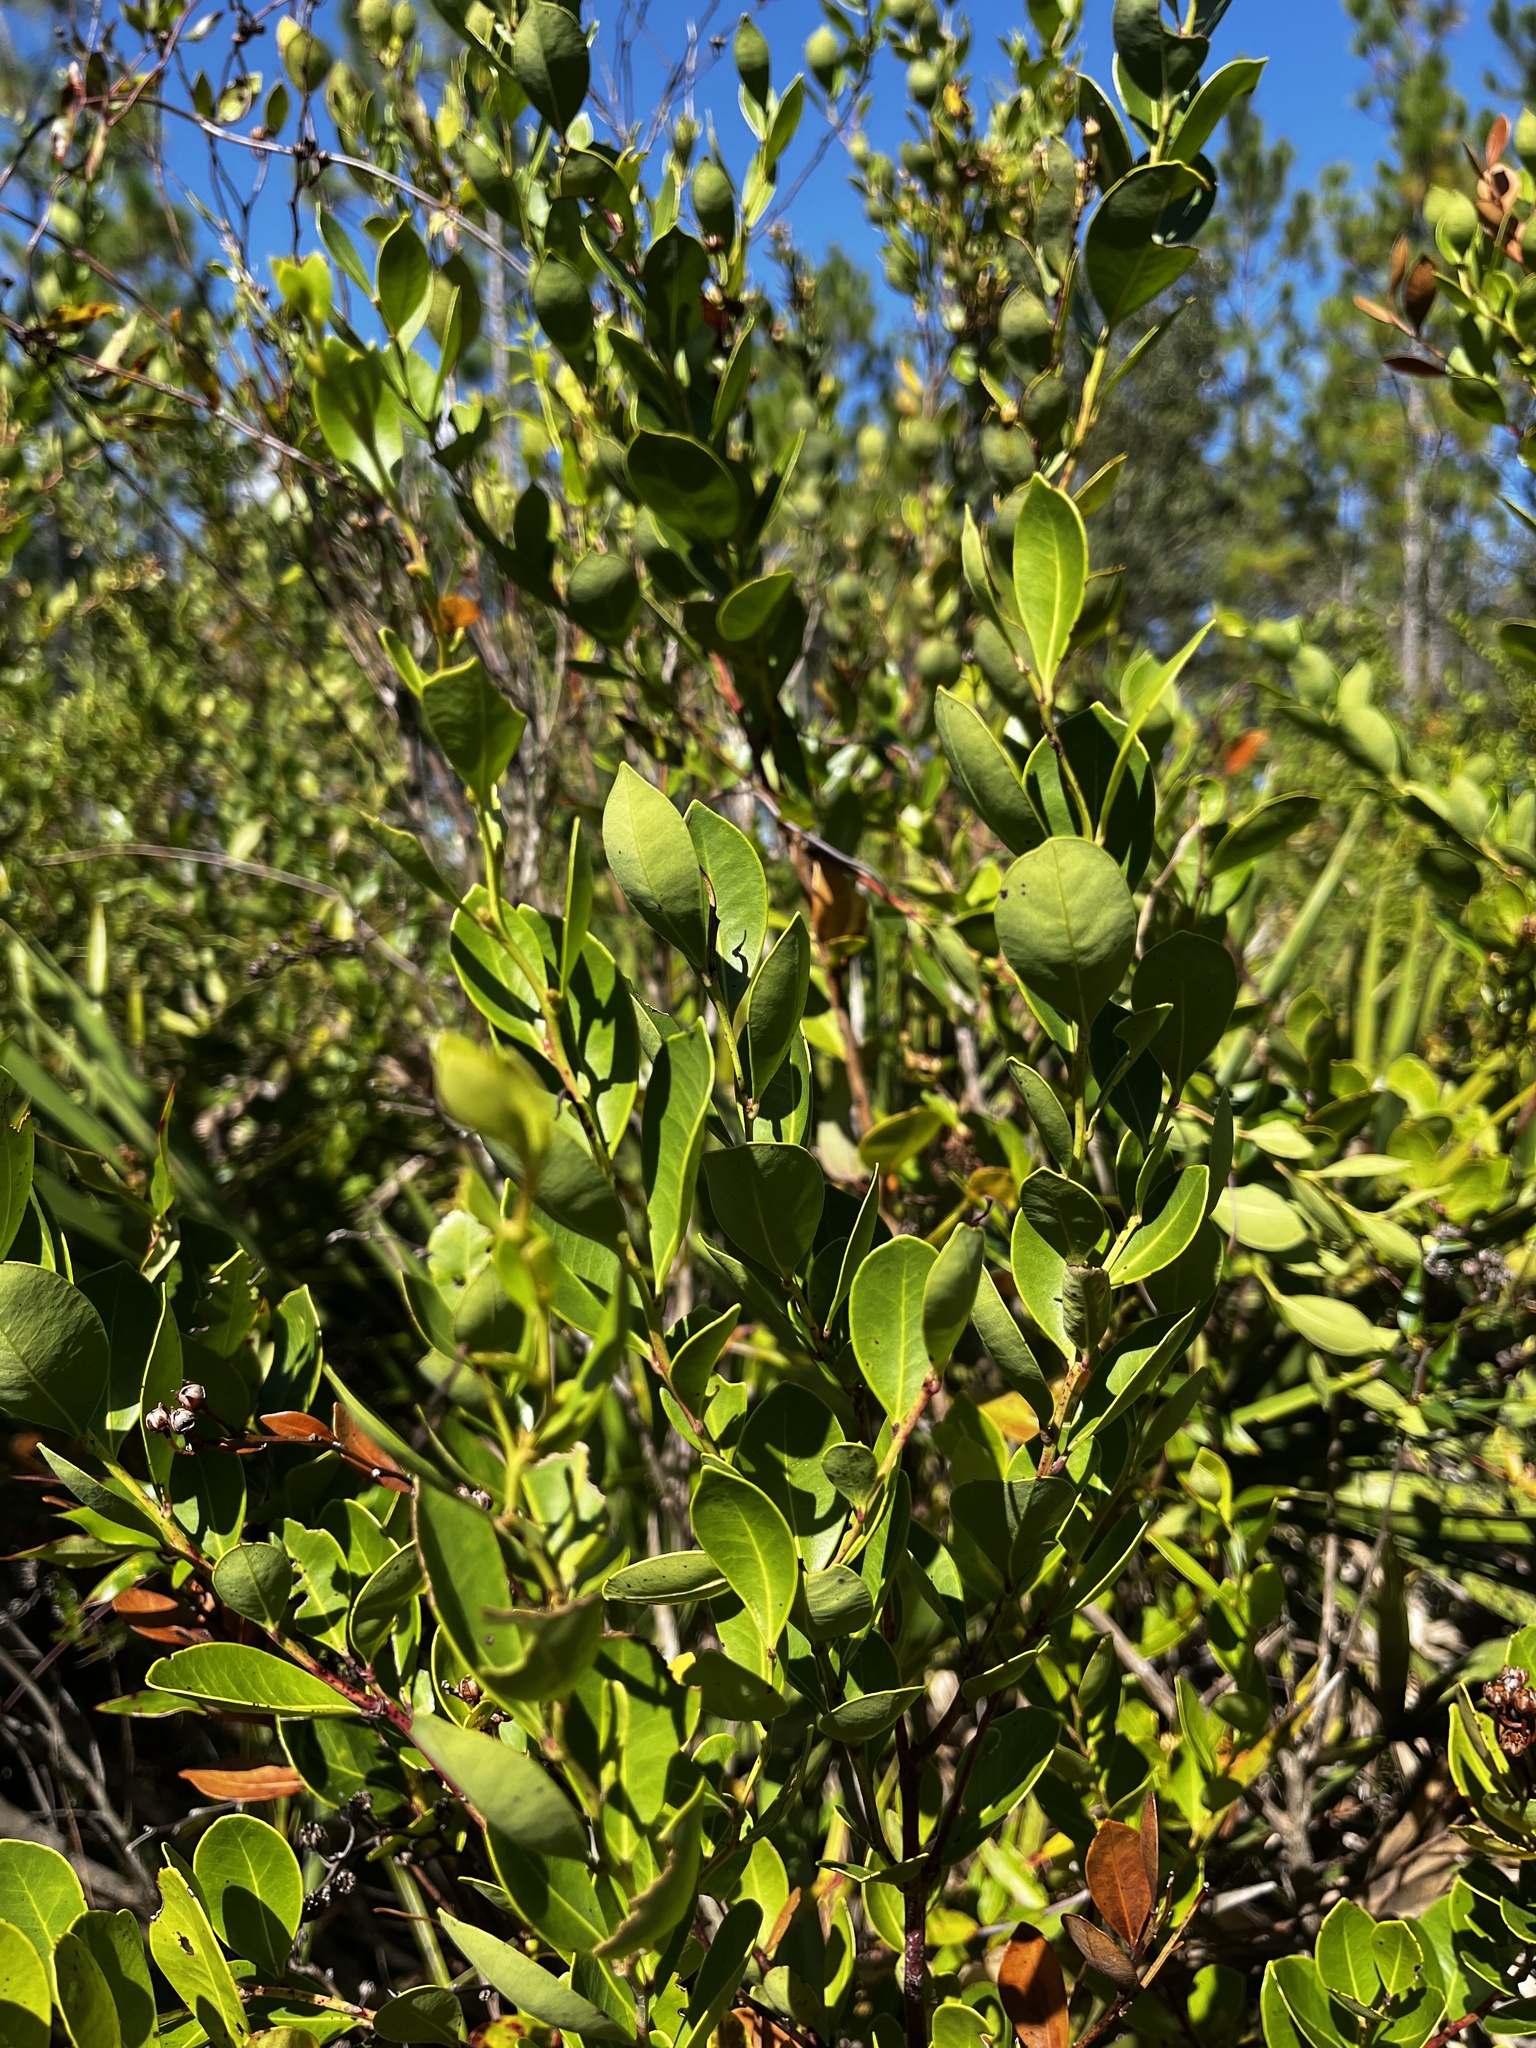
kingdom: Plantae
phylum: Tracheophyta
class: Magnoliopsida
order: Ericales
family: Ericaceae
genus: Lyonia
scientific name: Lyonia lucida
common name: Fetterbush
